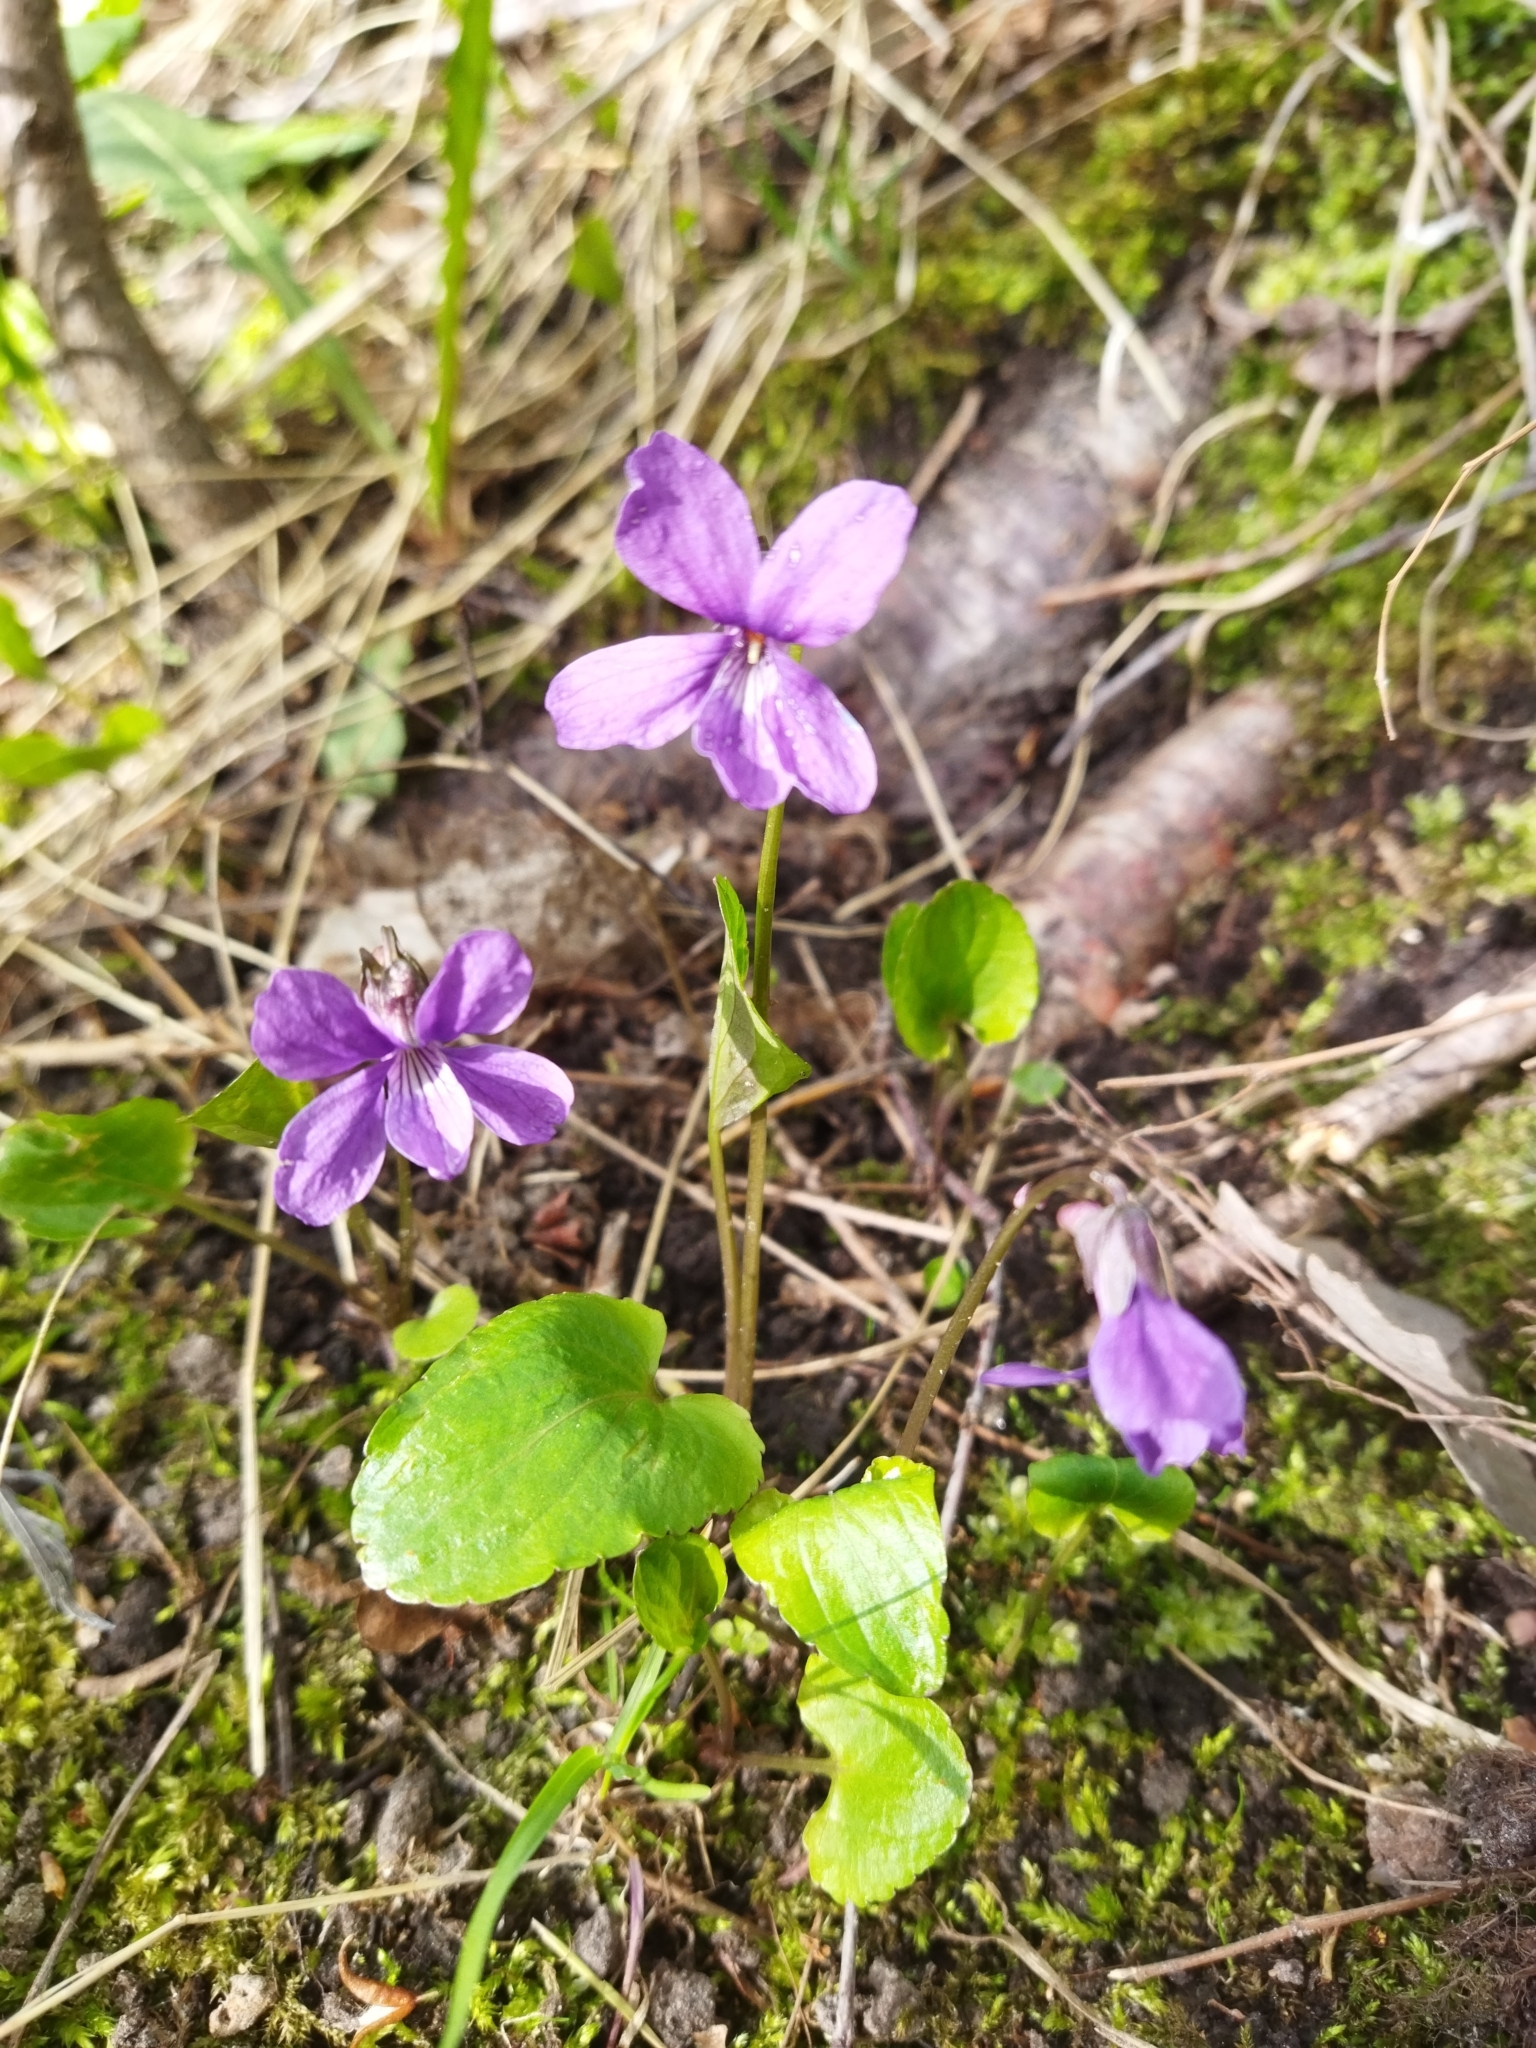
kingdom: Plantae
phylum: Tracheophyta
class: Magnoliopsida
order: Malpighiales
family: Violaceae
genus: Viola
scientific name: Viola uliginosa
